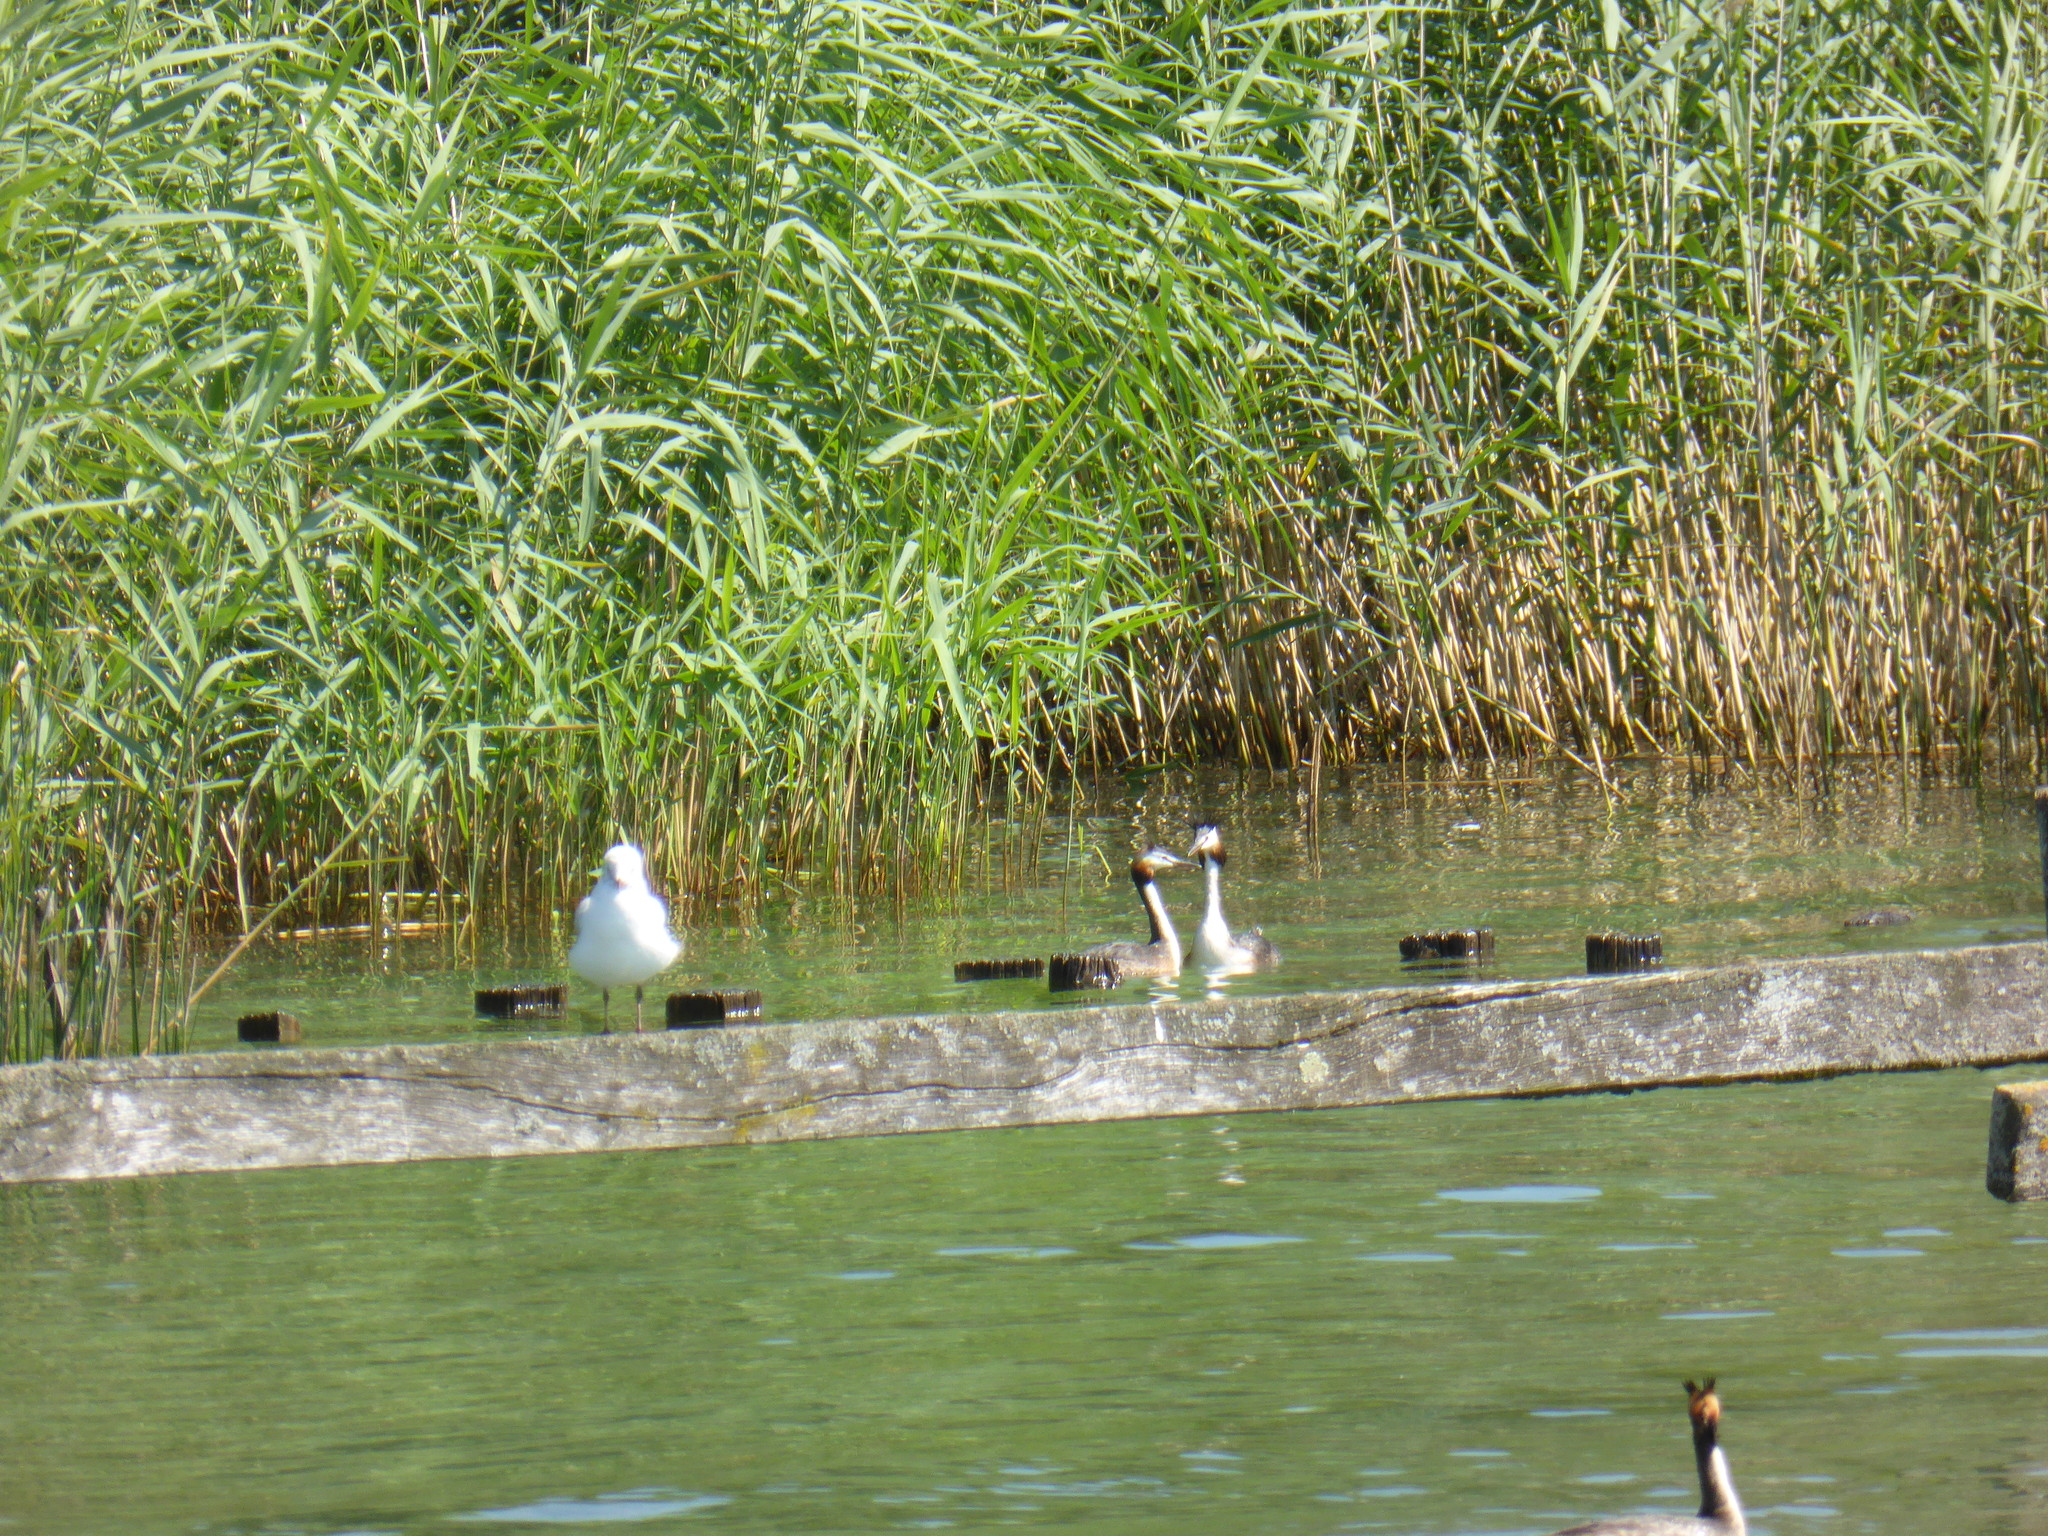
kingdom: Animalia
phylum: Chordata
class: Aves
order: Podicipediformes
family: Podicipedidae
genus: Podiceps
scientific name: Podiceps cristatus
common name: Great crested grebe
